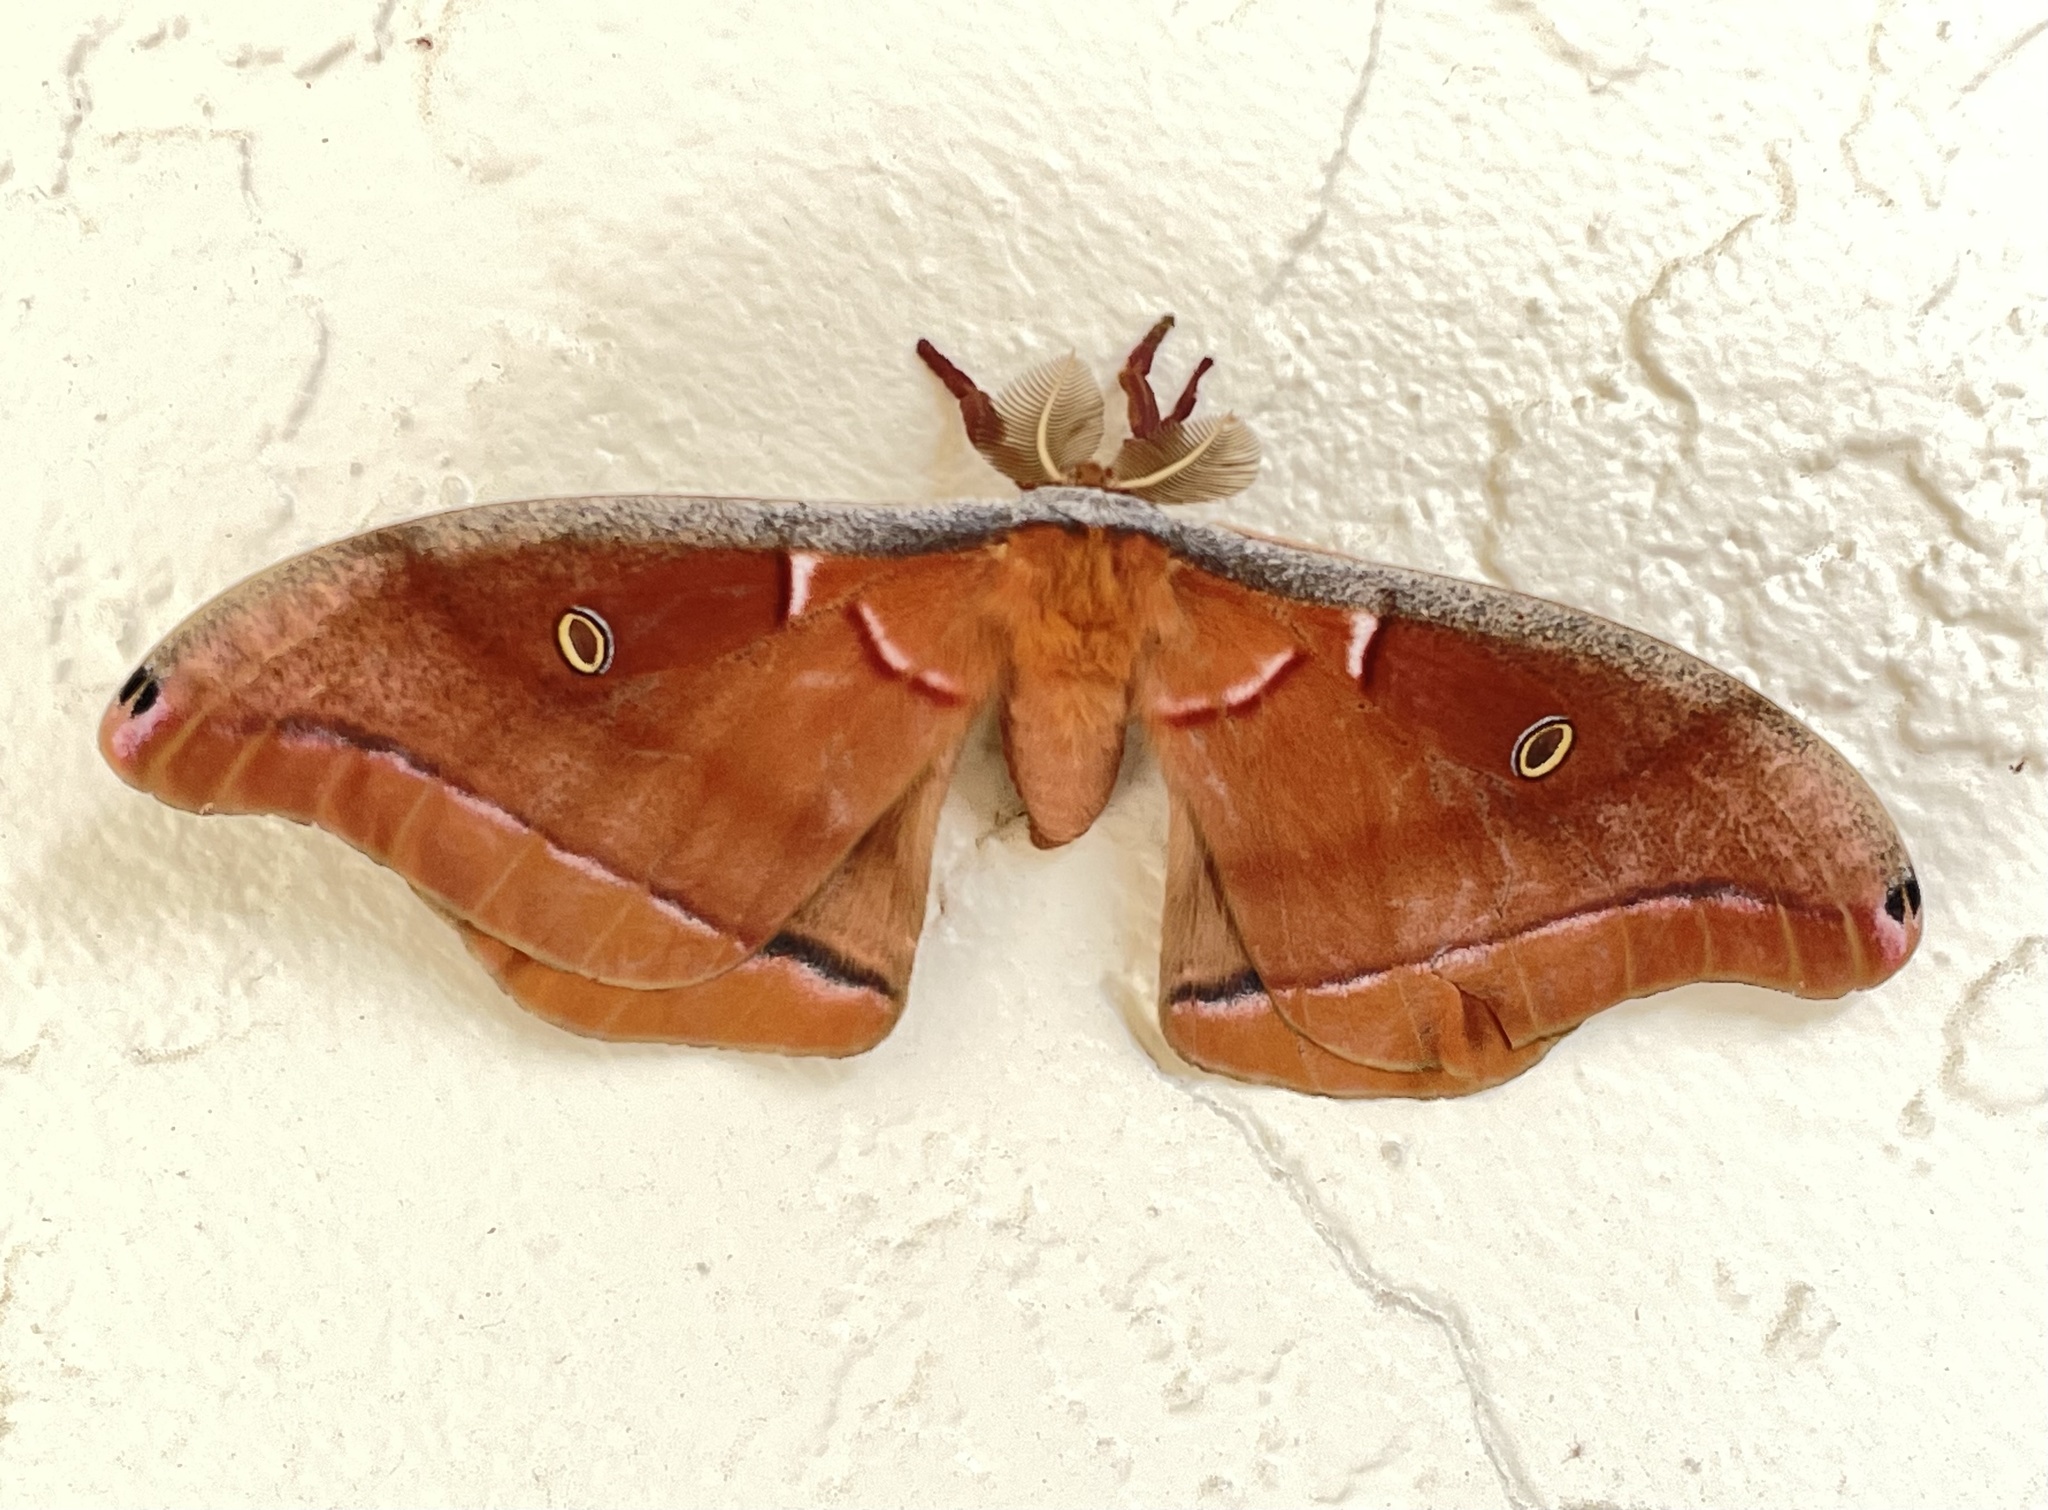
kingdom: Animalia
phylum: Arthropoda
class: Insecta
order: Lepidoptera
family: Saturniidae
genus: Antheraea
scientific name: Antheraea polyphemus
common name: Polyphemus moth
